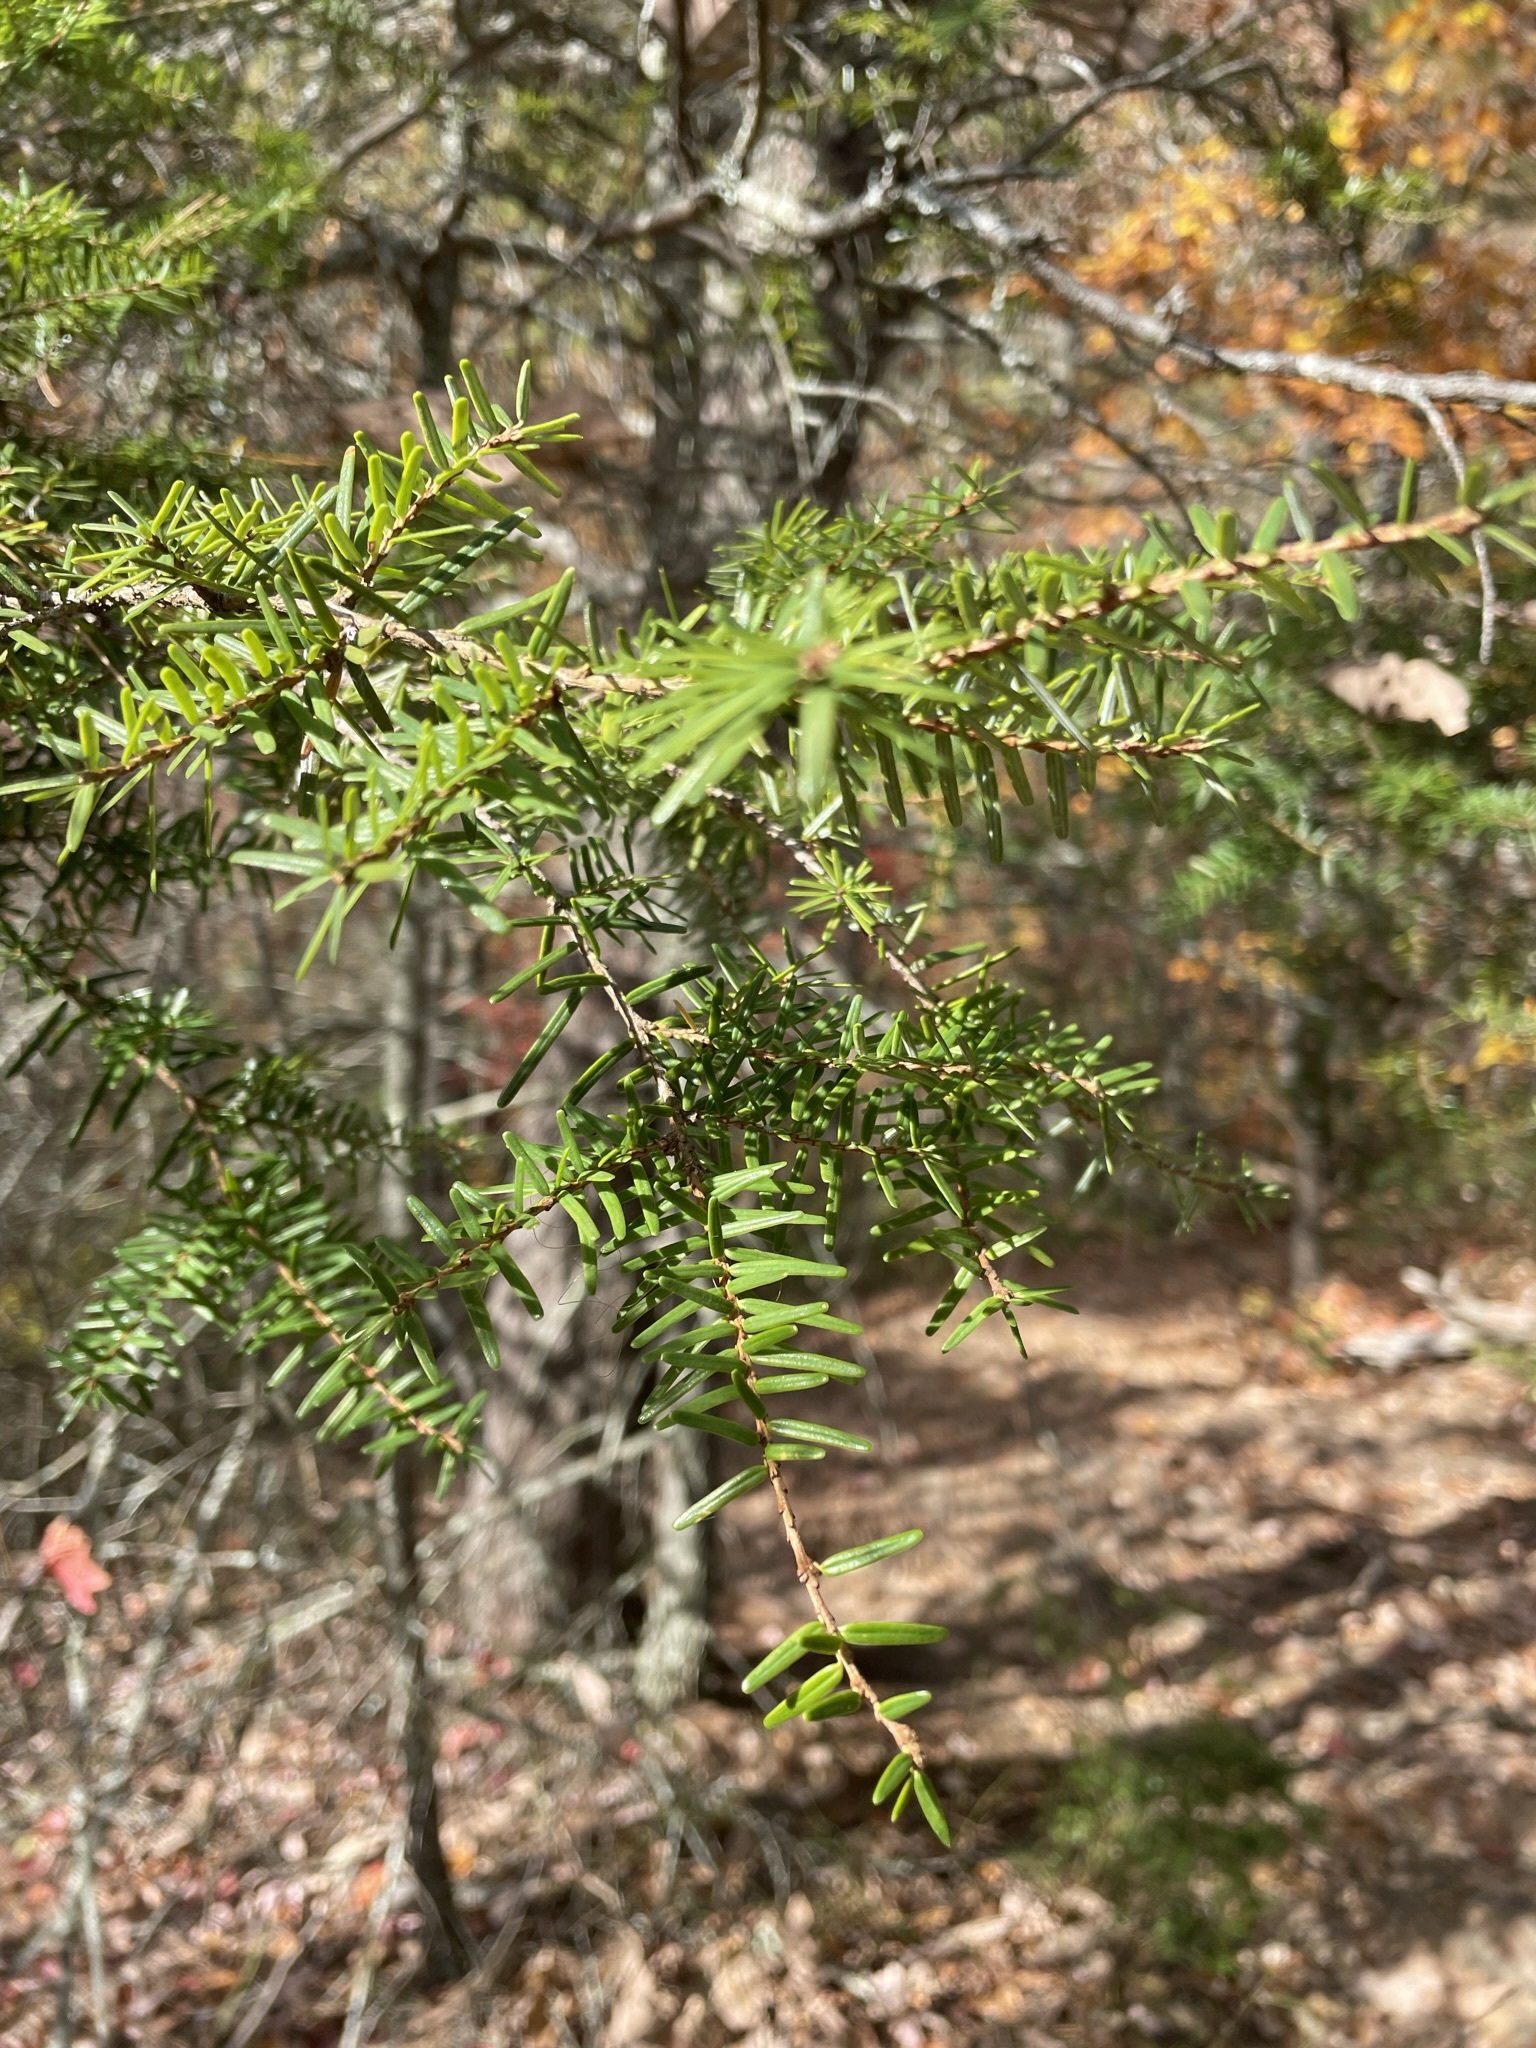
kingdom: Plantae
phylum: Tracheophyta
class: Pinopsida
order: Pinales
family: Pinaceae
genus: Tsuga
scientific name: Tsuga caroliniana
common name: Carolina hemlock
